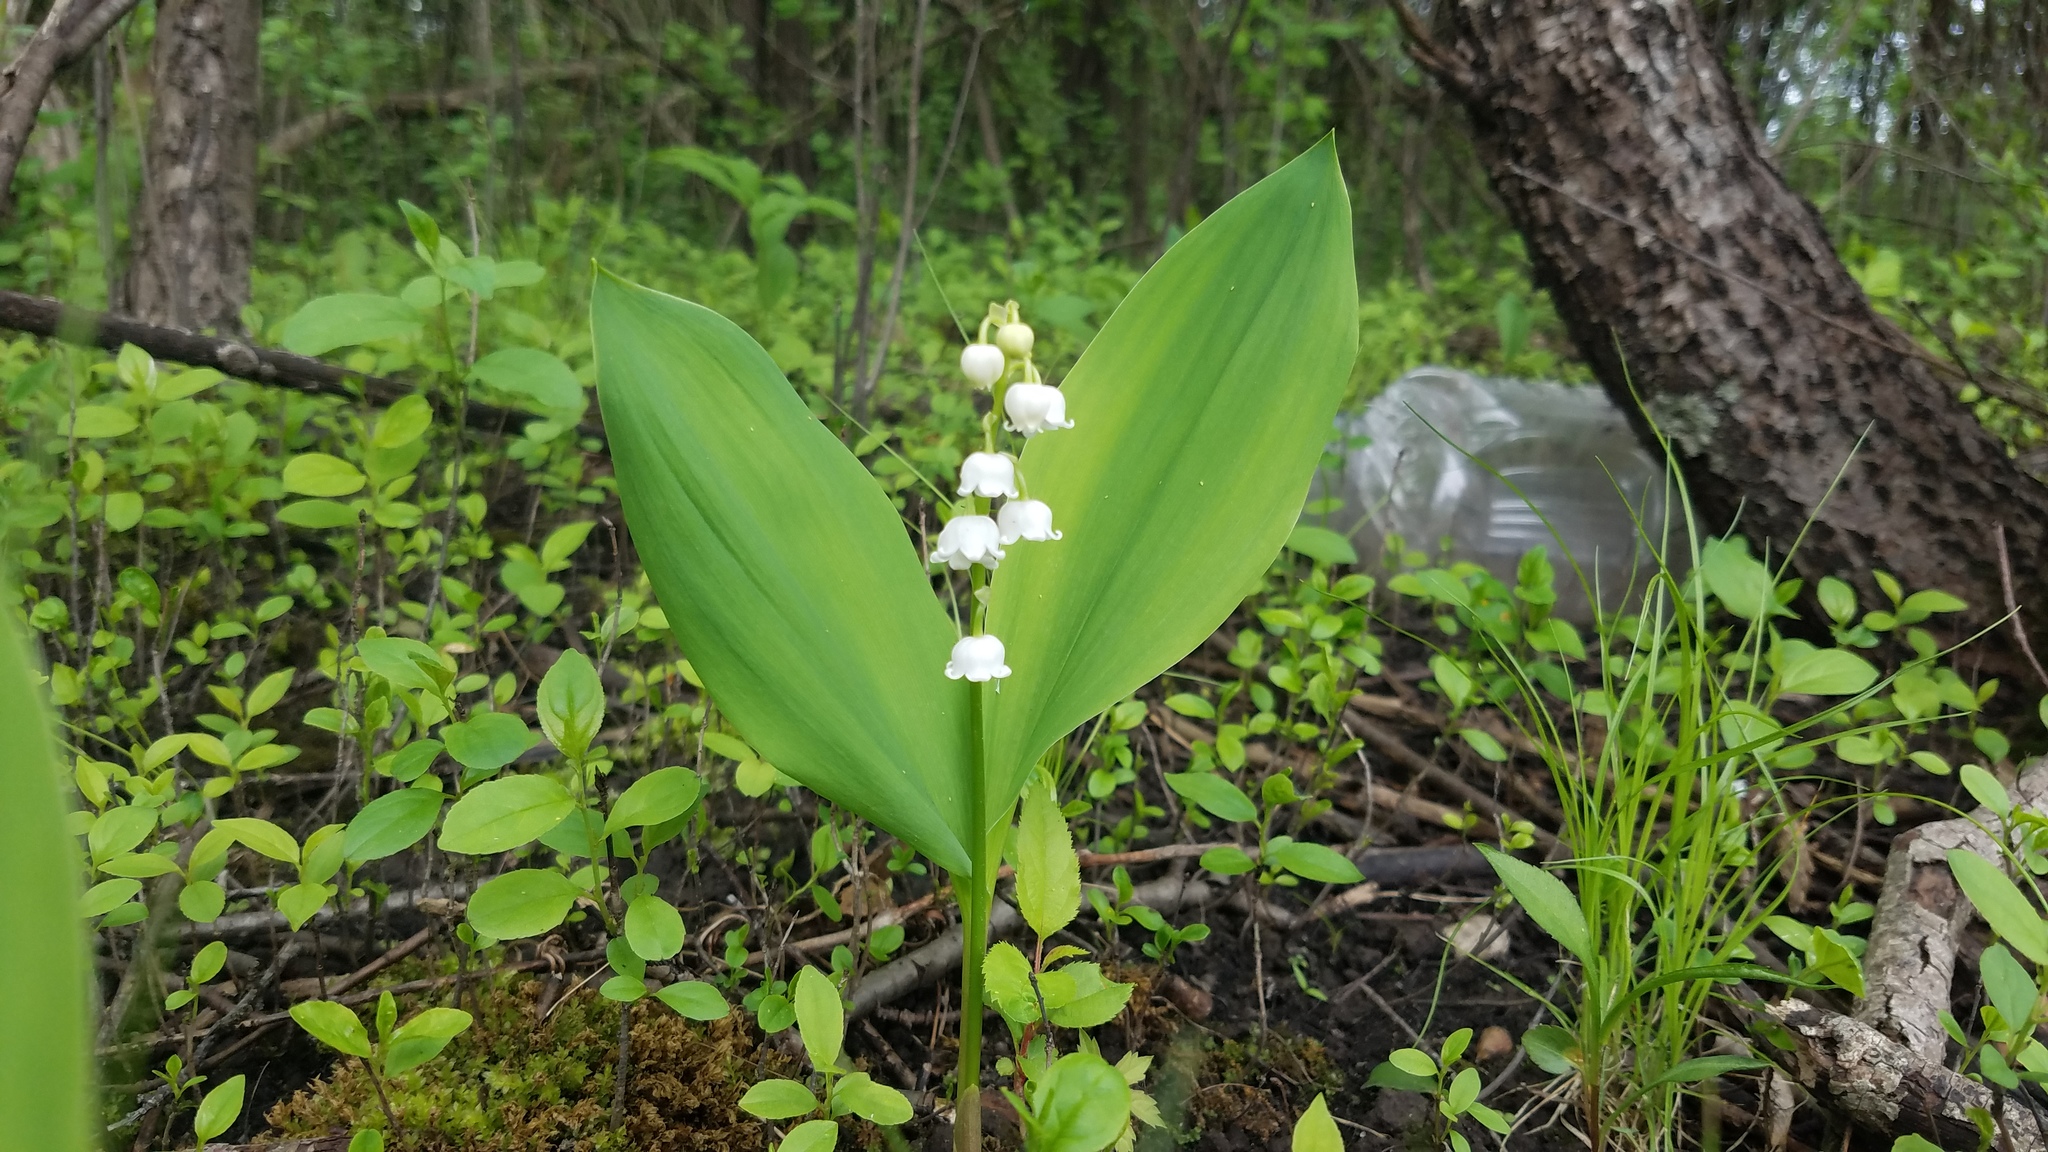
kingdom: Plantae
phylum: Tracheophyta
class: Liliopsida
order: Asparagales
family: Asparagaceae
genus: Convallaria
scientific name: Convallaria majalis
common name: Lily-of-the-valley
